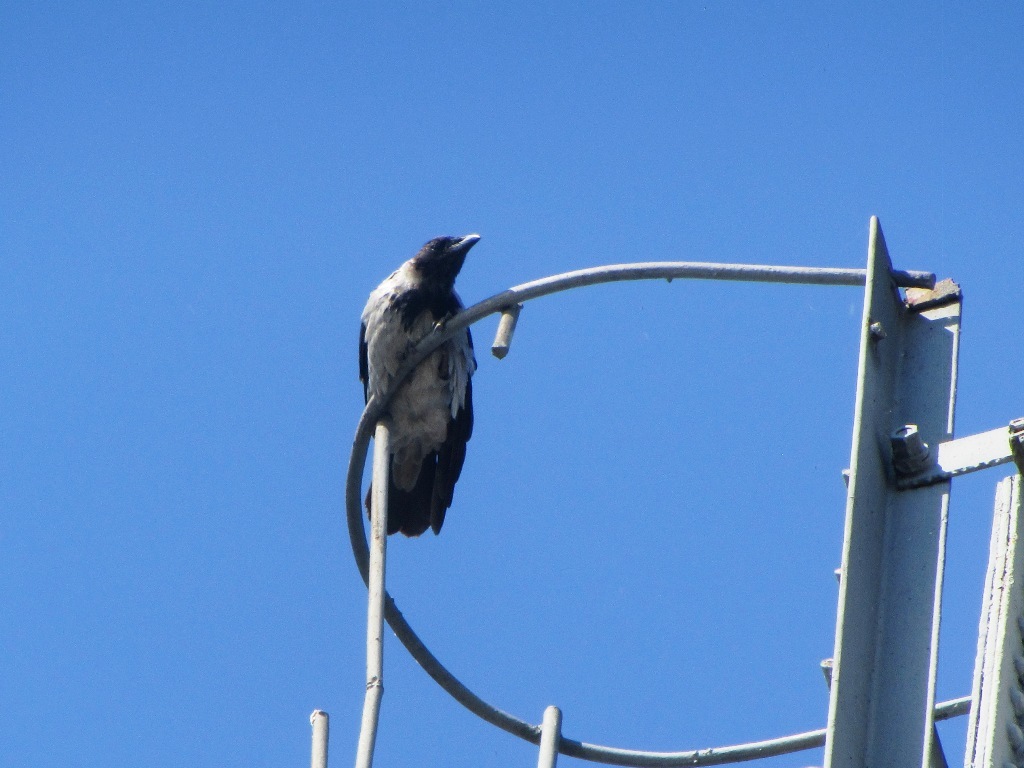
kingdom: Animalia
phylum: Chordata
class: Aves
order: Passeriformes
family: Corvidae
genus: Corvus
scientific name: Corvus cornix
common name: Hooded crow
